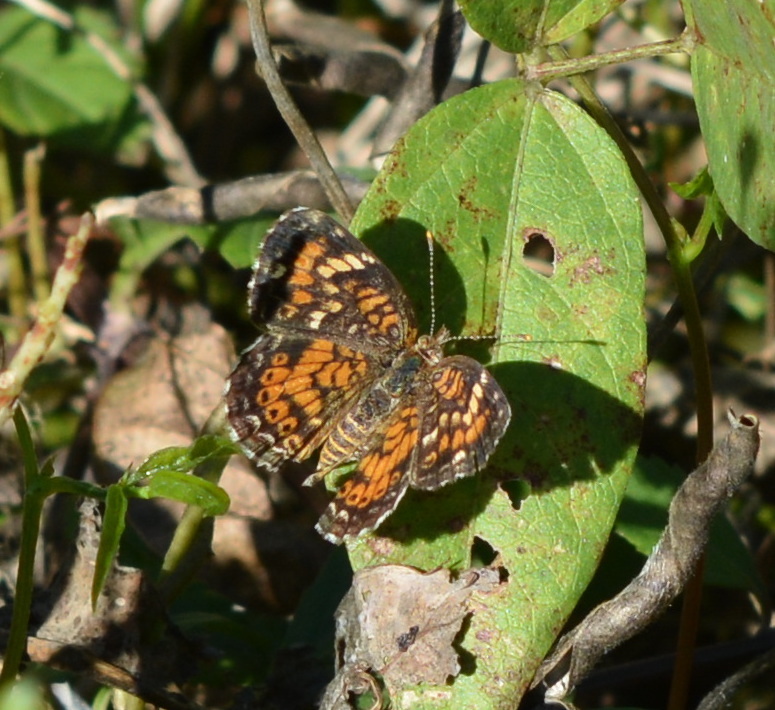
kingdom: Animalia
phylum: Arthropoda
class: Insecta
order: Lepidoptera
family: Nymphalidae
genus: Phyciodes
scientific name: Phyciodes phaon
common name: Phaon crescent
